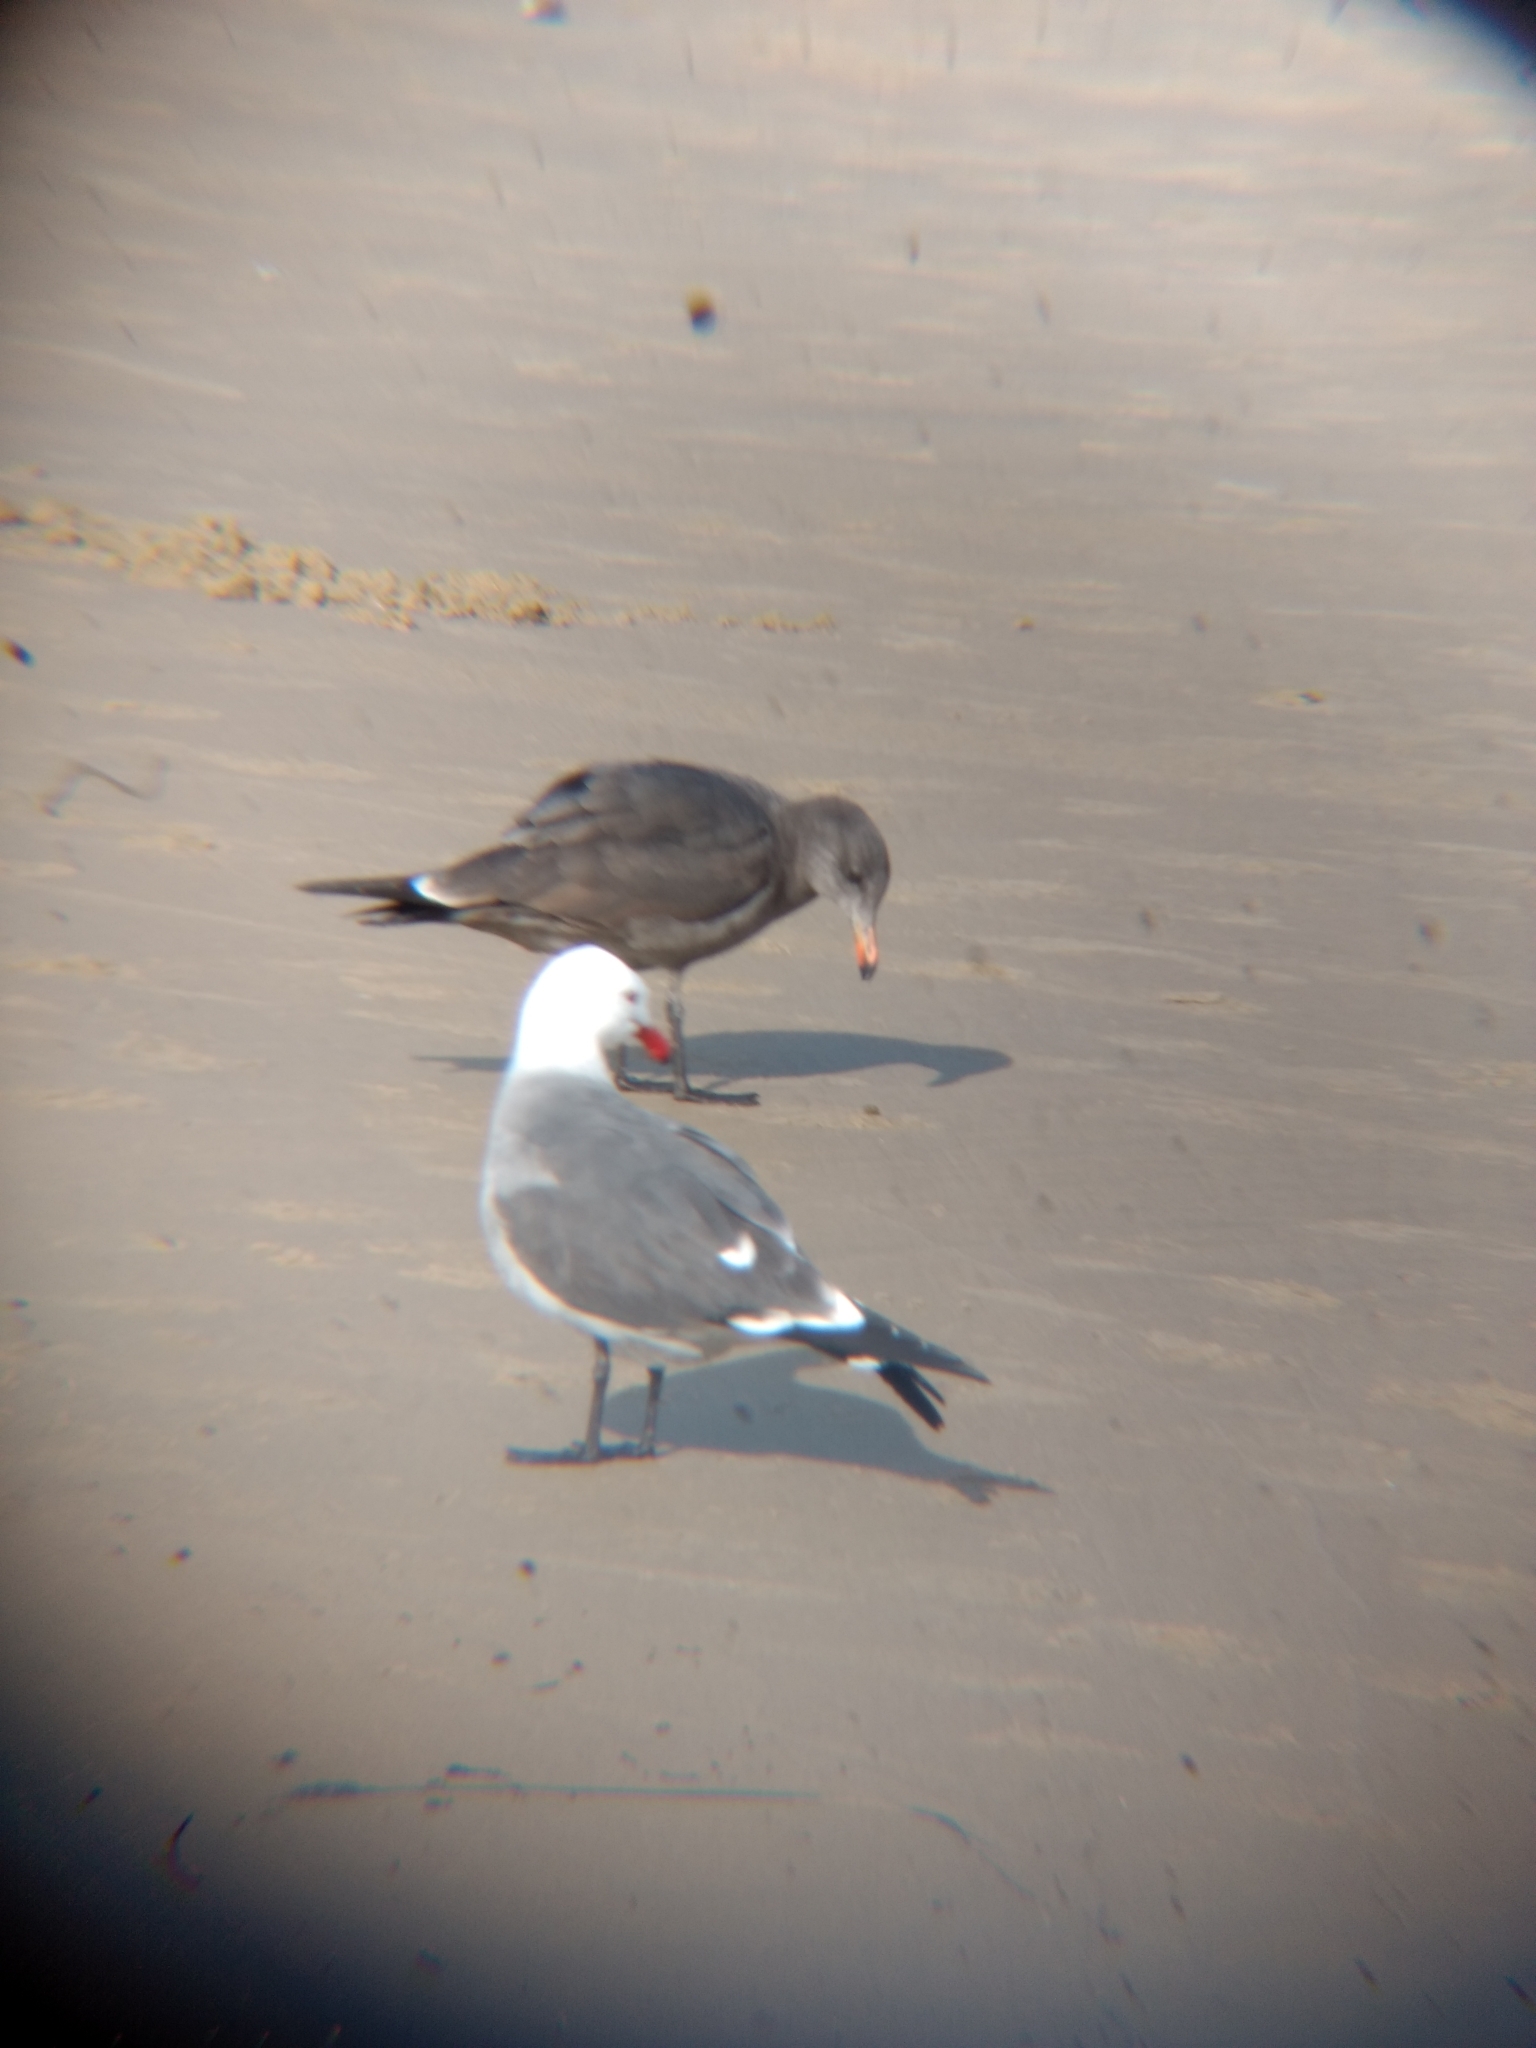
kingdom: Animalia
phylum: Chordata
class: Aves
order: Charadriiformes
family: Laridae
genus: Larus
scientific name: Larus heermanni
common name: Heermann's gull
